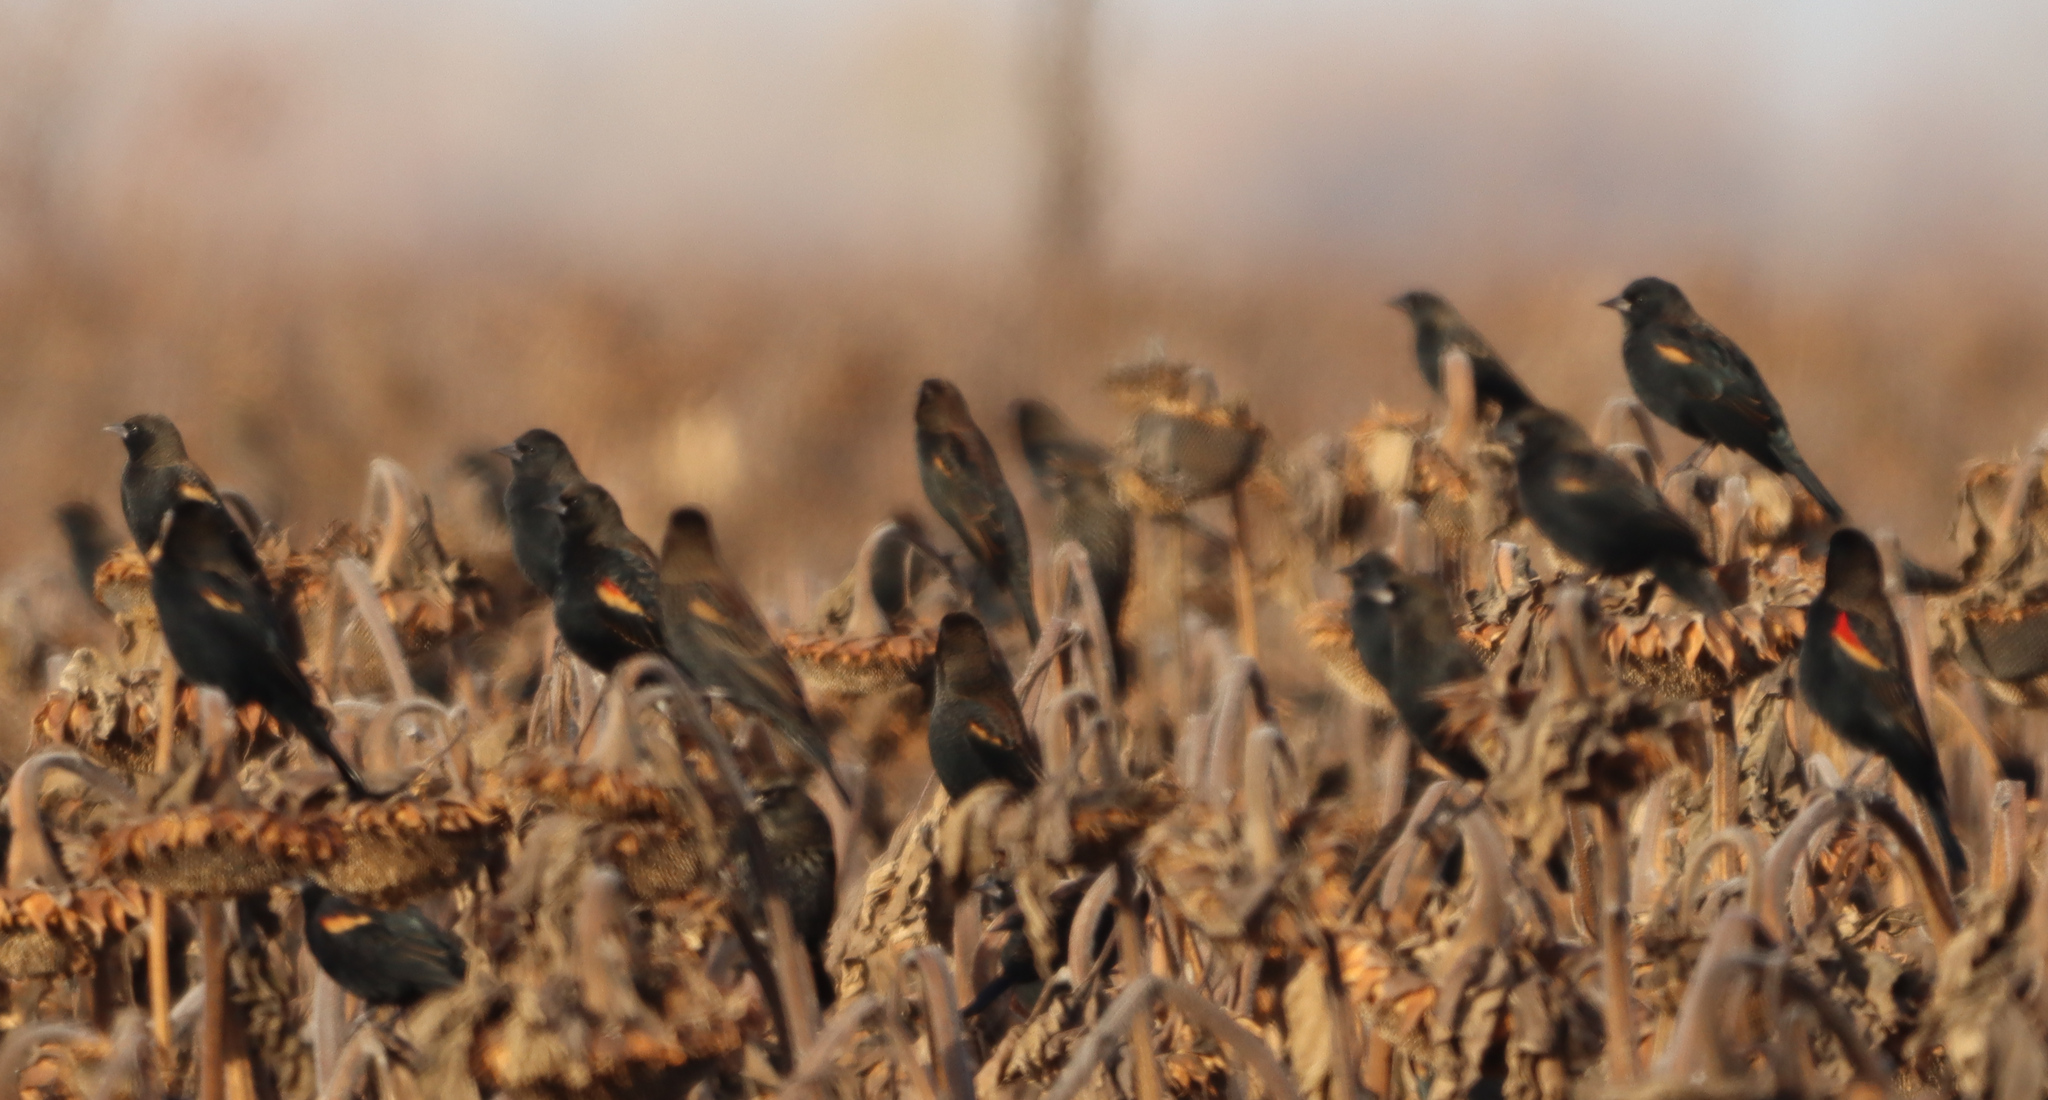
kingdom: Animalia
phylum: Chordata
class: Aves
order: Passeriformes
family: Icteridae
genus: Agelaius
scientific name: Agelaius phoeniceus
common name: Red-winged blackbird
